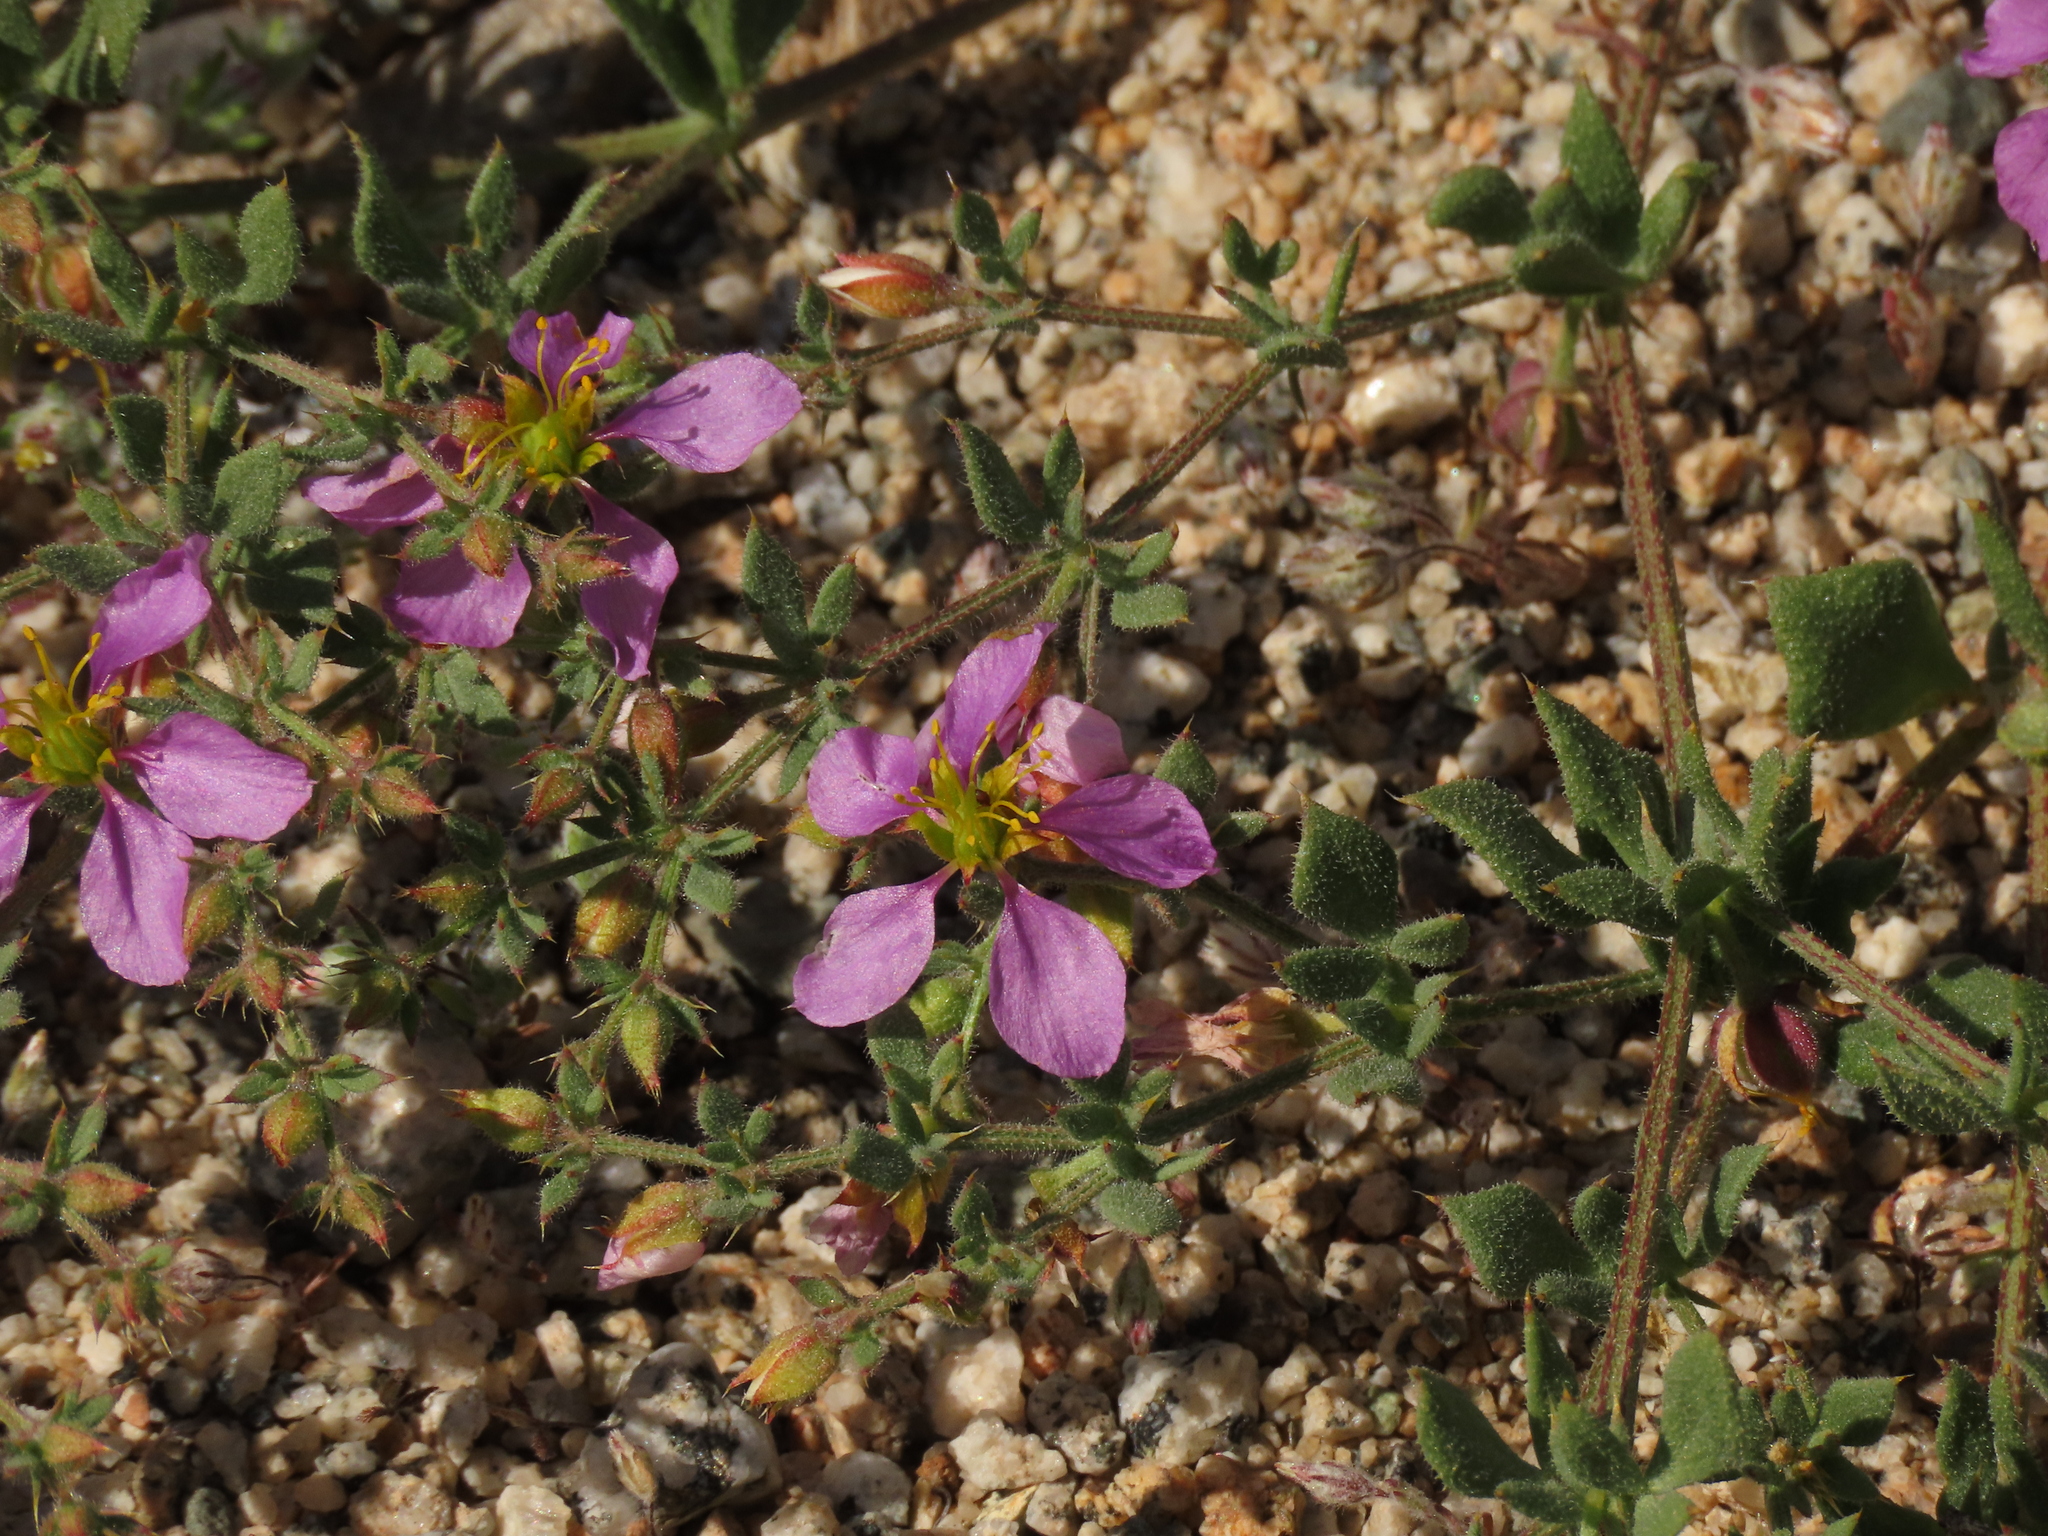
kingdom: Plantae
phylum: Tracheophyta
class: Magnoliopsida
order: Zygophyllales
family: Zygophyllaceae
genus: Fagonia
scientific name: Fagonia chilensis
